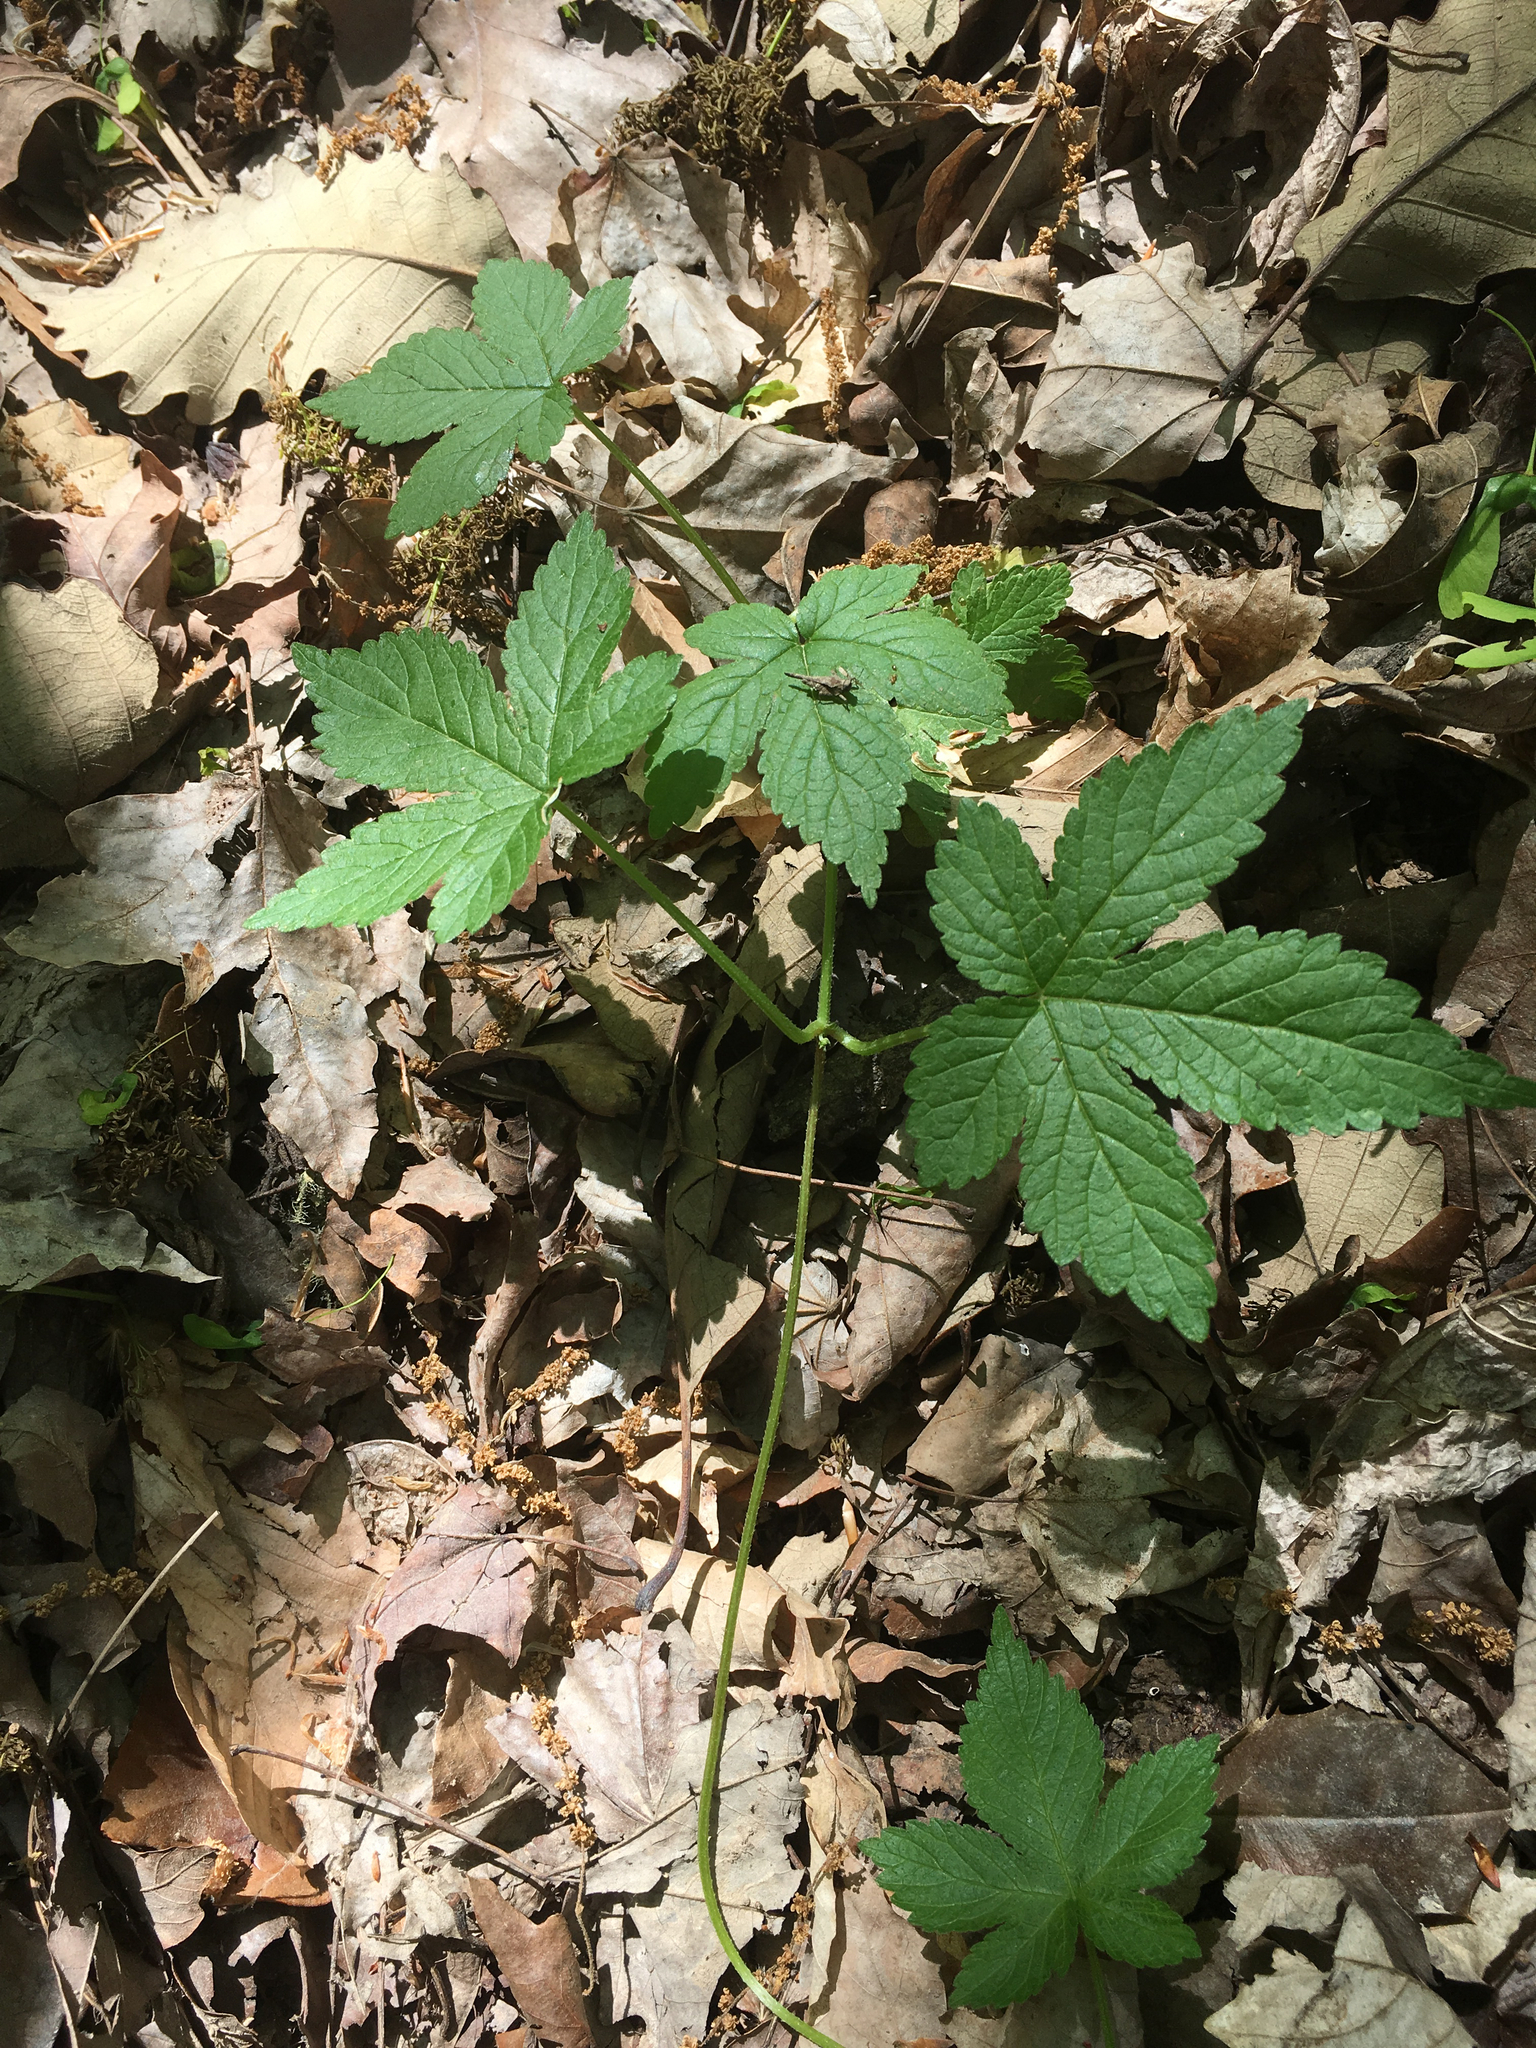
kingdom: Plantae
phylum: Tracheophyta
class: Magnoliopsida
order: Rosales
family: Cannabaceae
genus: Humulus
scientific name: Humulus scandens
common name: Japanese hop
